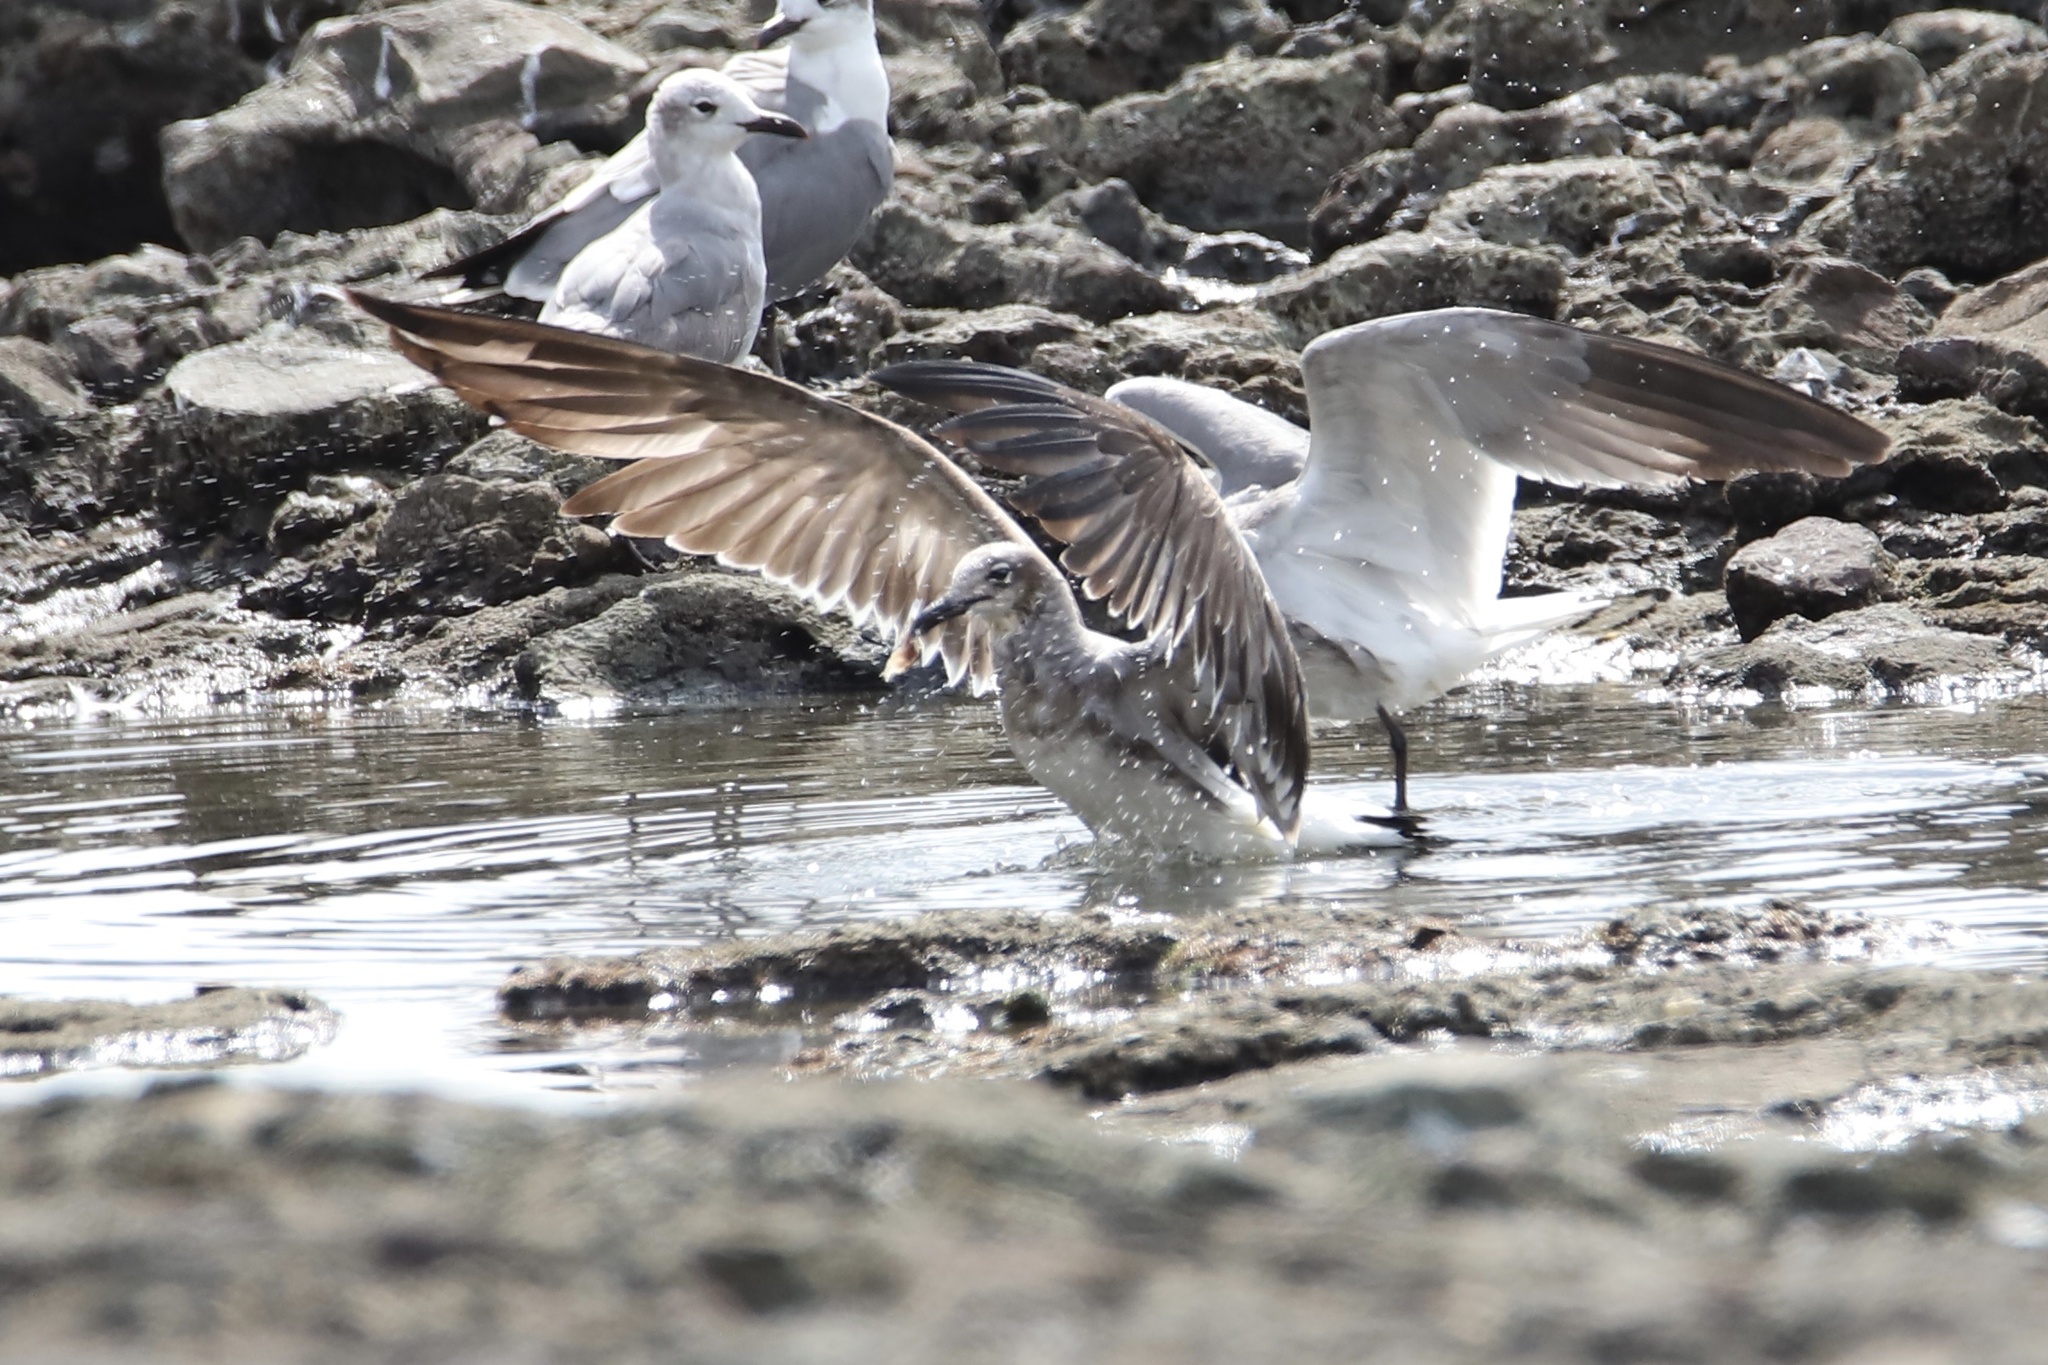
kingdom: Animalia
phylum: Chordata
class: Aves
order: Charadriiformes
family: Laridae
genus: Leucophaeus
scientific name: Leucophaeus atricilla
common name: Laughing gull
